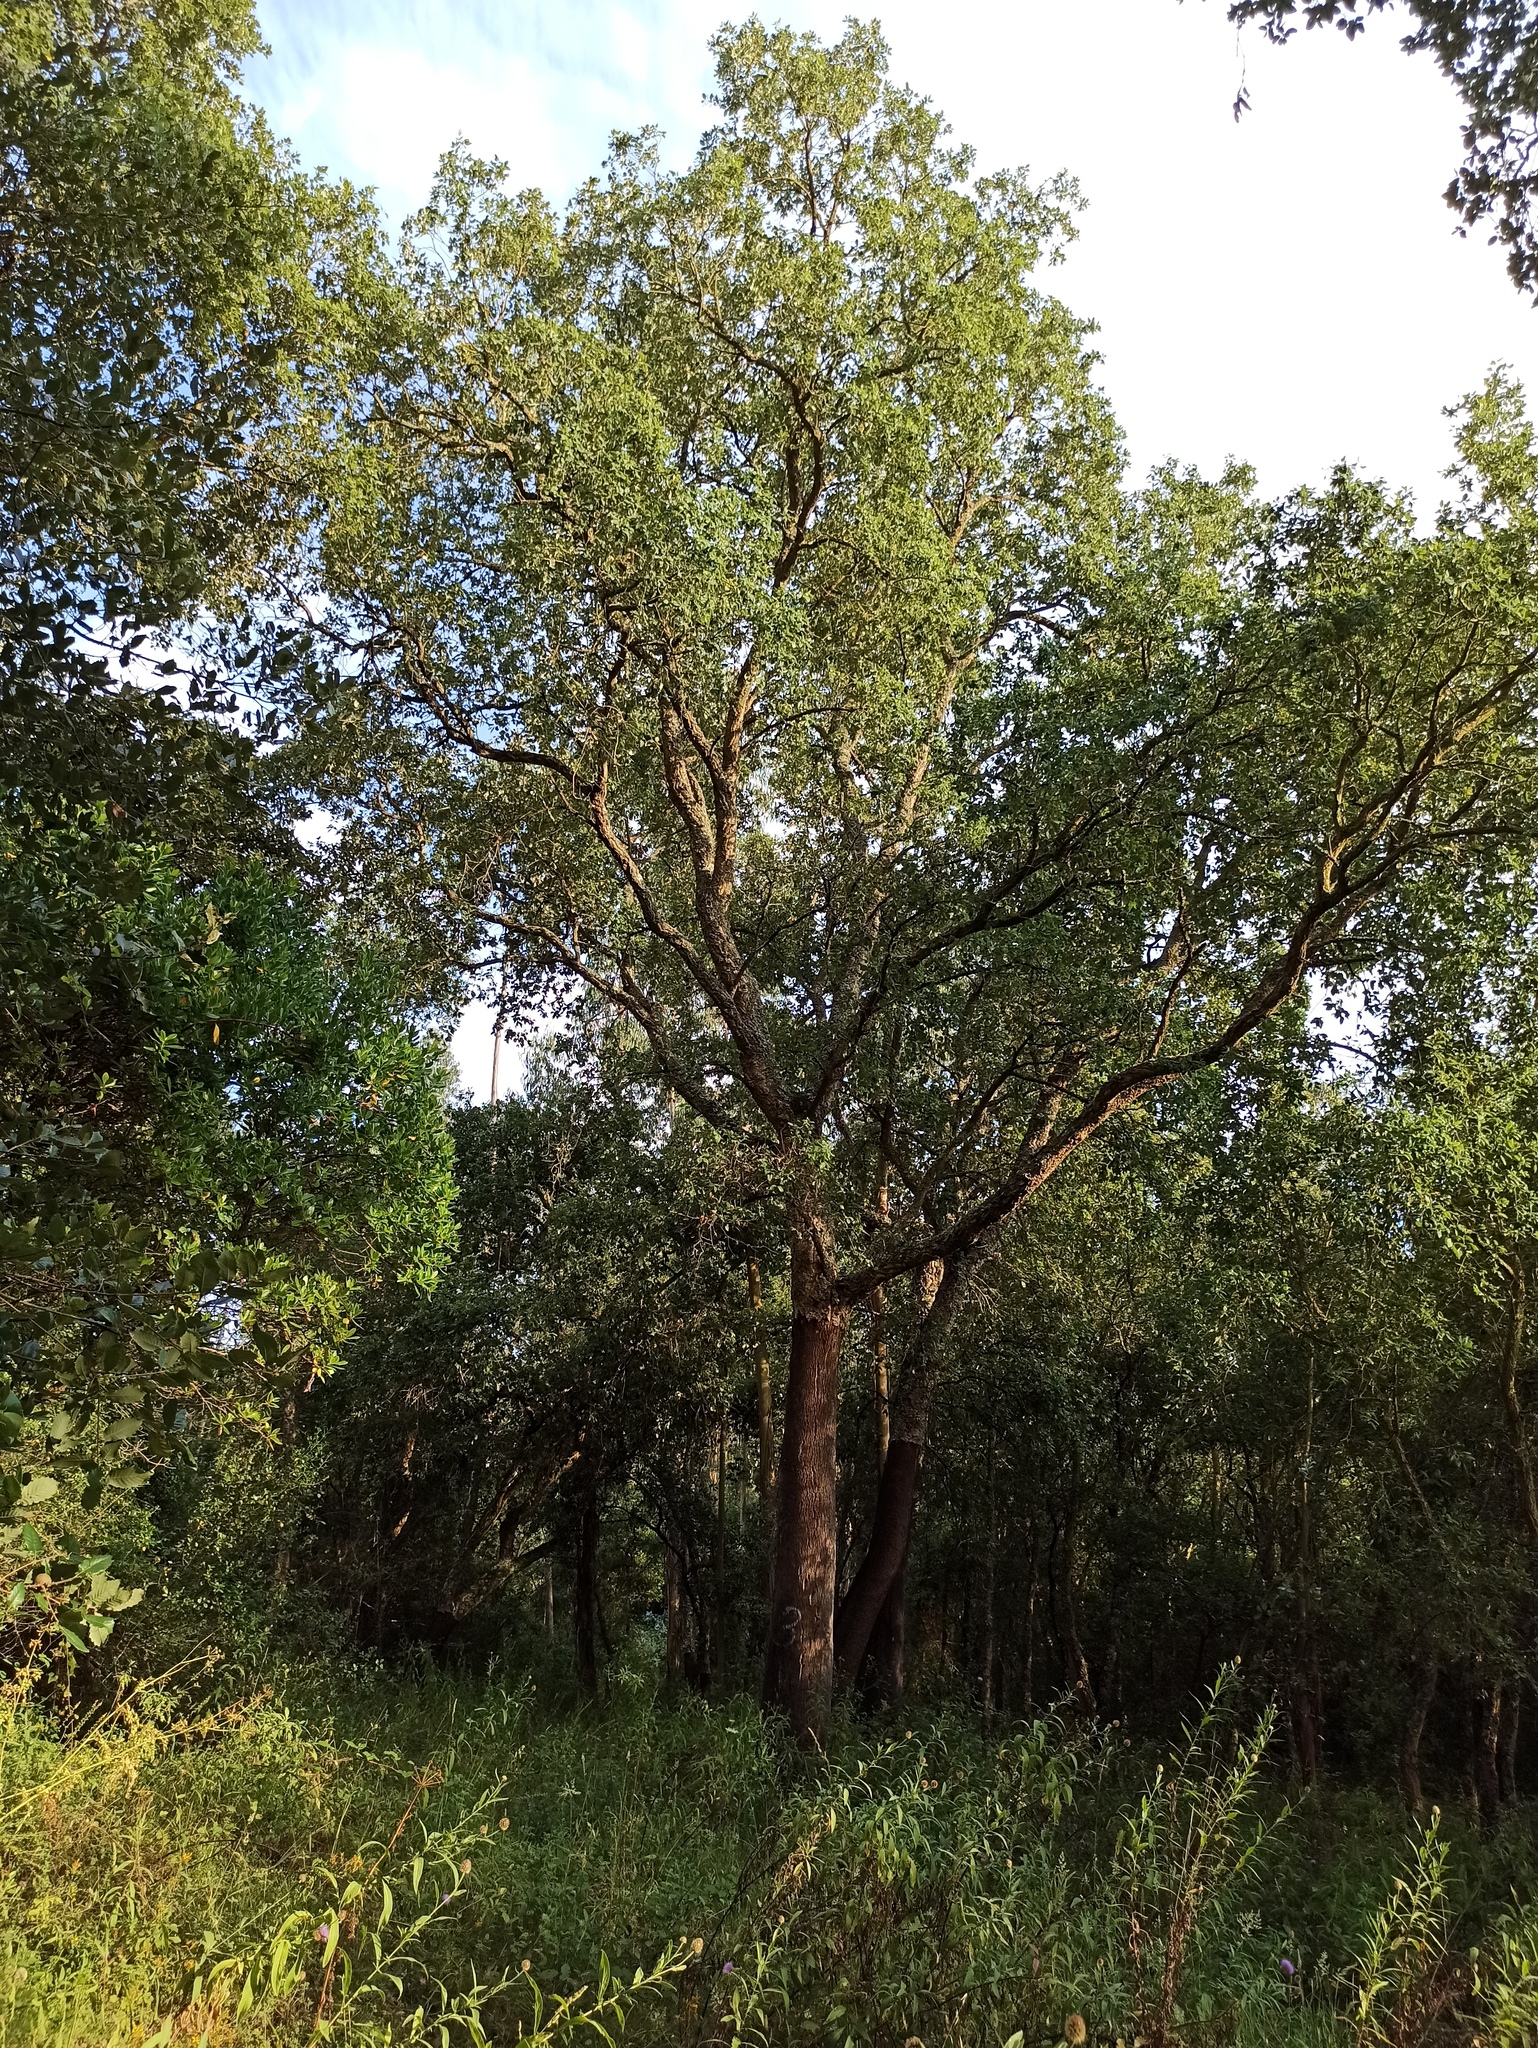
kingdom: Plantae
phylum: Tracheophyta
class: Magnoliopsida
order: Fagales
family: Fagaceae
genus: Quercus
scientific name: Quercus suber
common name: Cork oak
